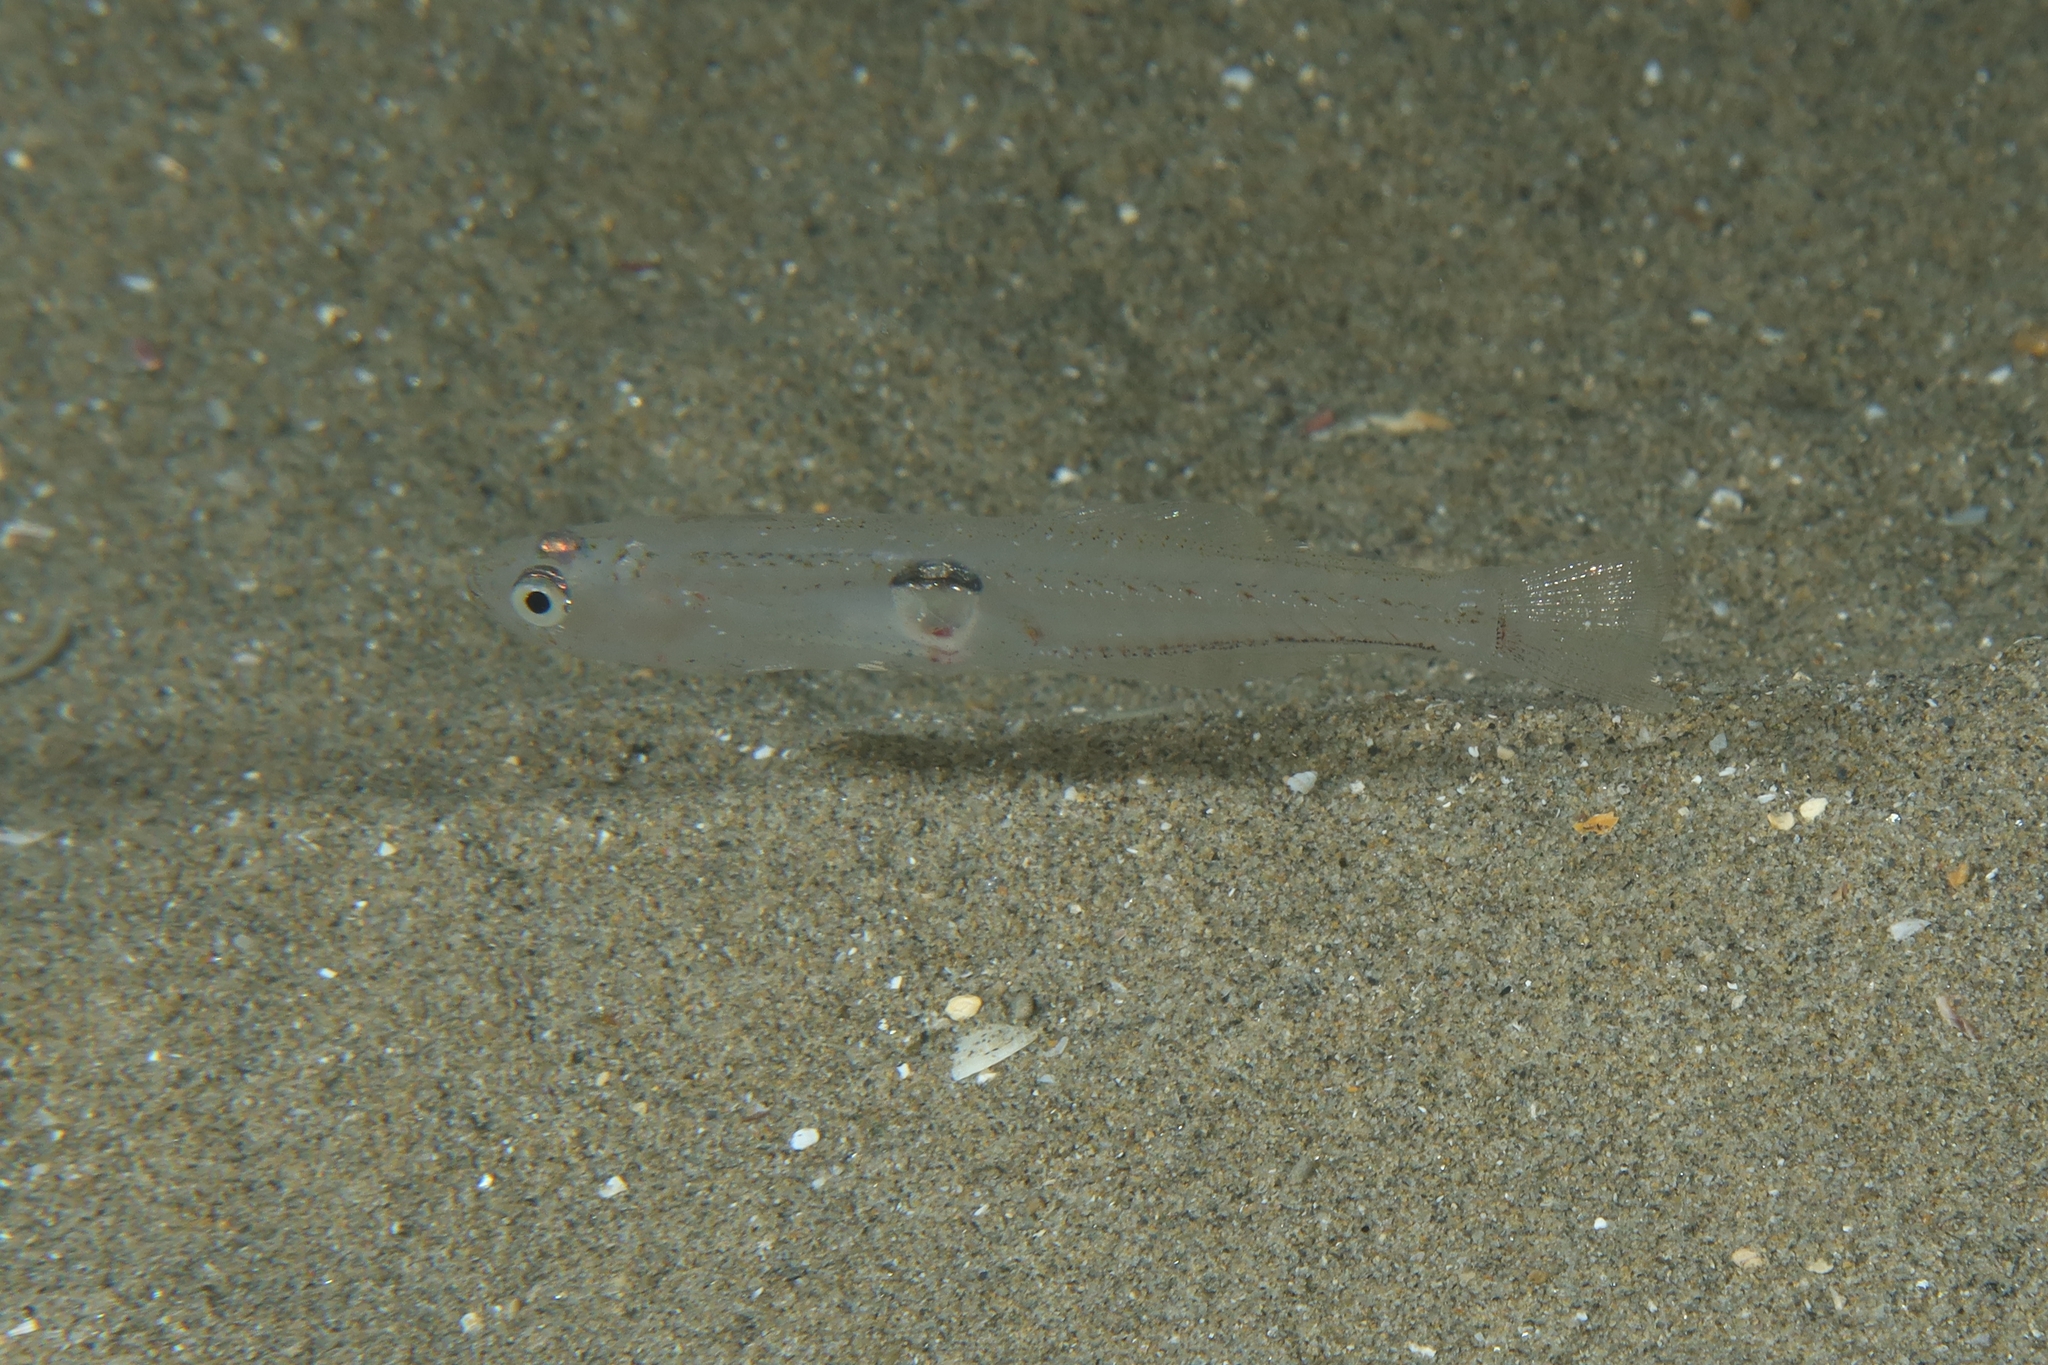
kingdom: Animalia
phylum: Chordata
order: Perciformes
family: Gobiidae
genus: Aphia
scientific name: Aphia minuta
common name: Transparent goby
